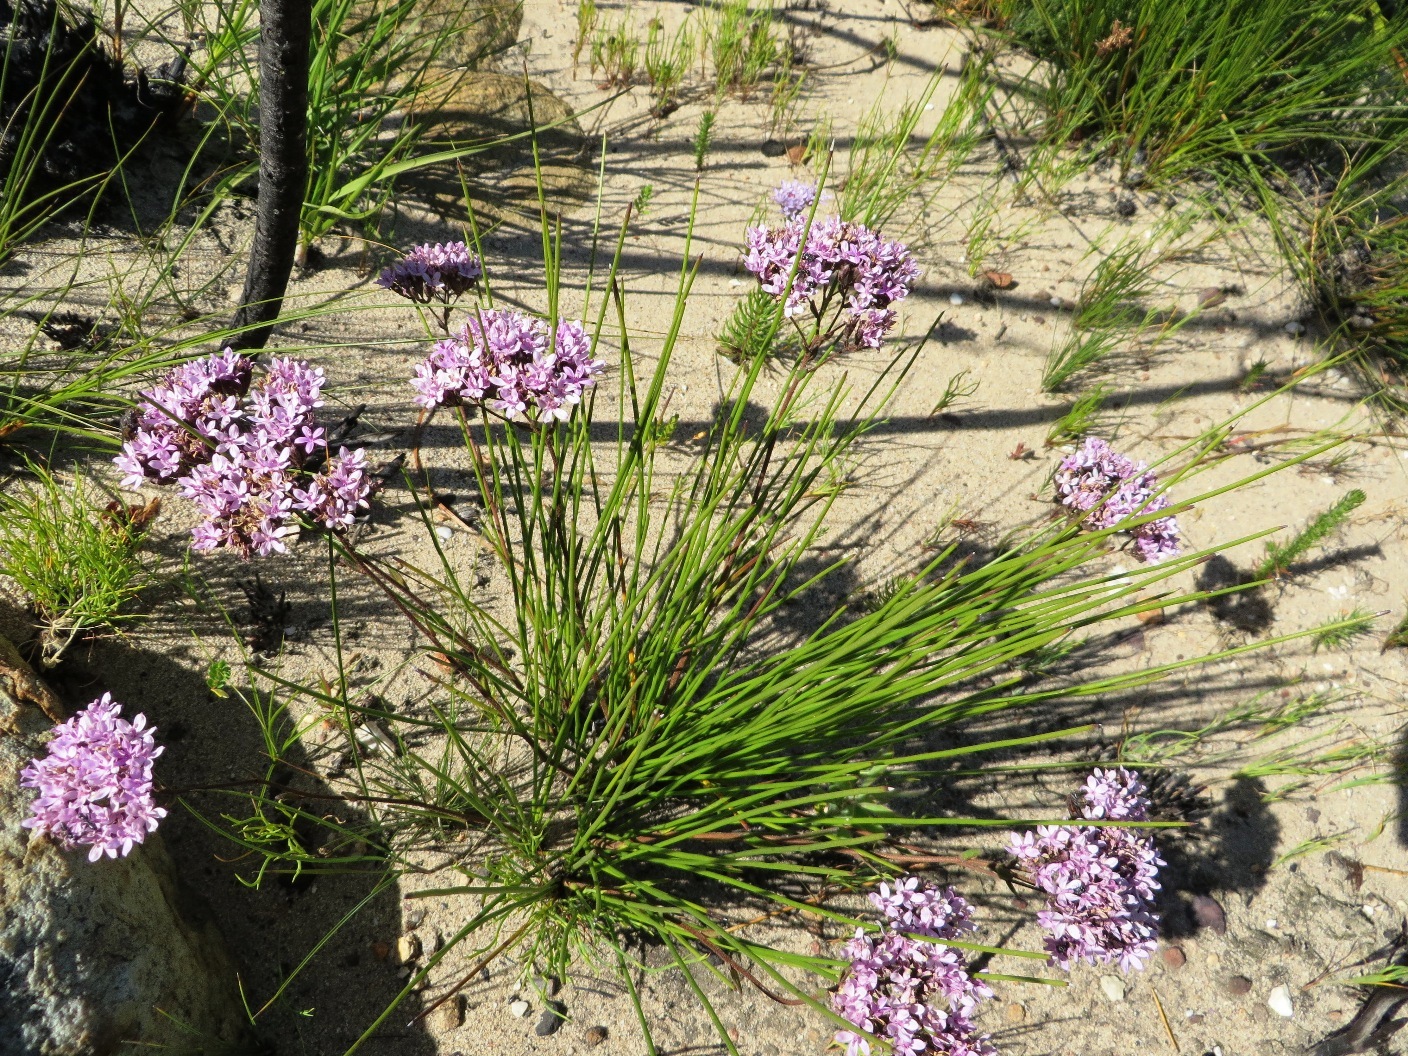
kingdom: Plantae
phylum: Tracheophyta
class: Magnoliopsida
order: Asterales
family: Asteraceae
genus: Corymbium
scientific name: Corymbium africanum
